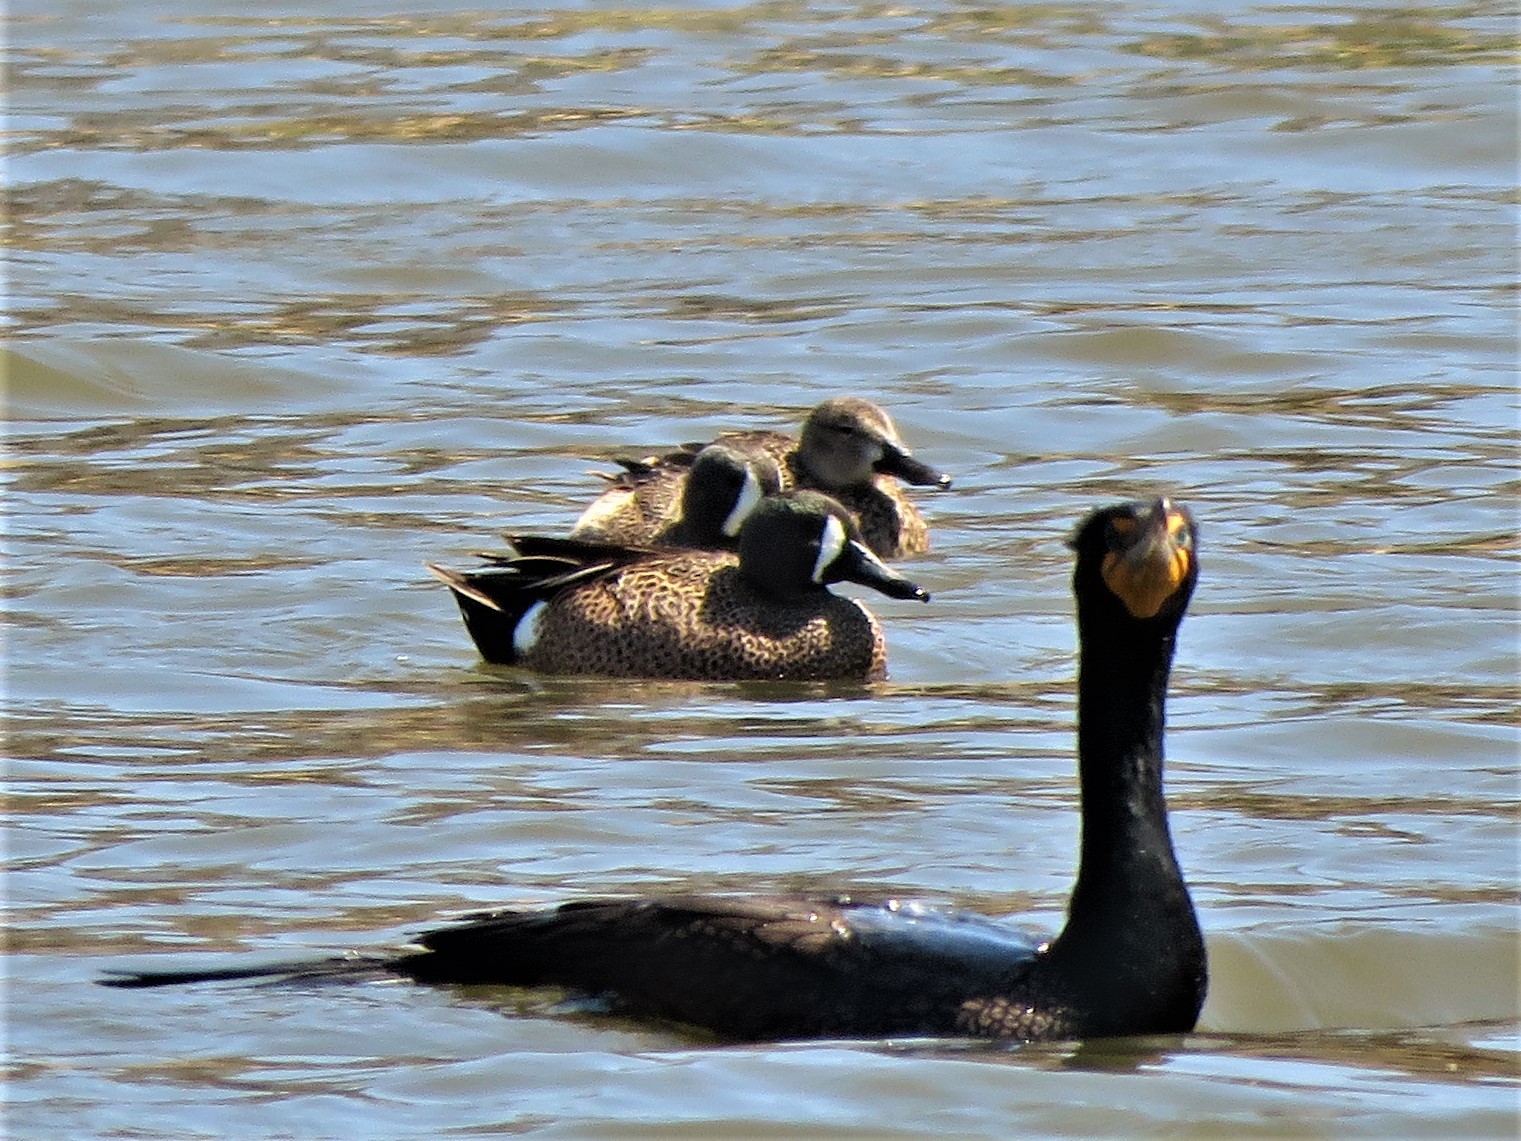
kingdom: Animalia
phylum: Chordata
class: Aves
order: Anseriformes
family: Anatidae
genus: Spatula
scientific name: Spatula discors
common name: Blue-winged teal
